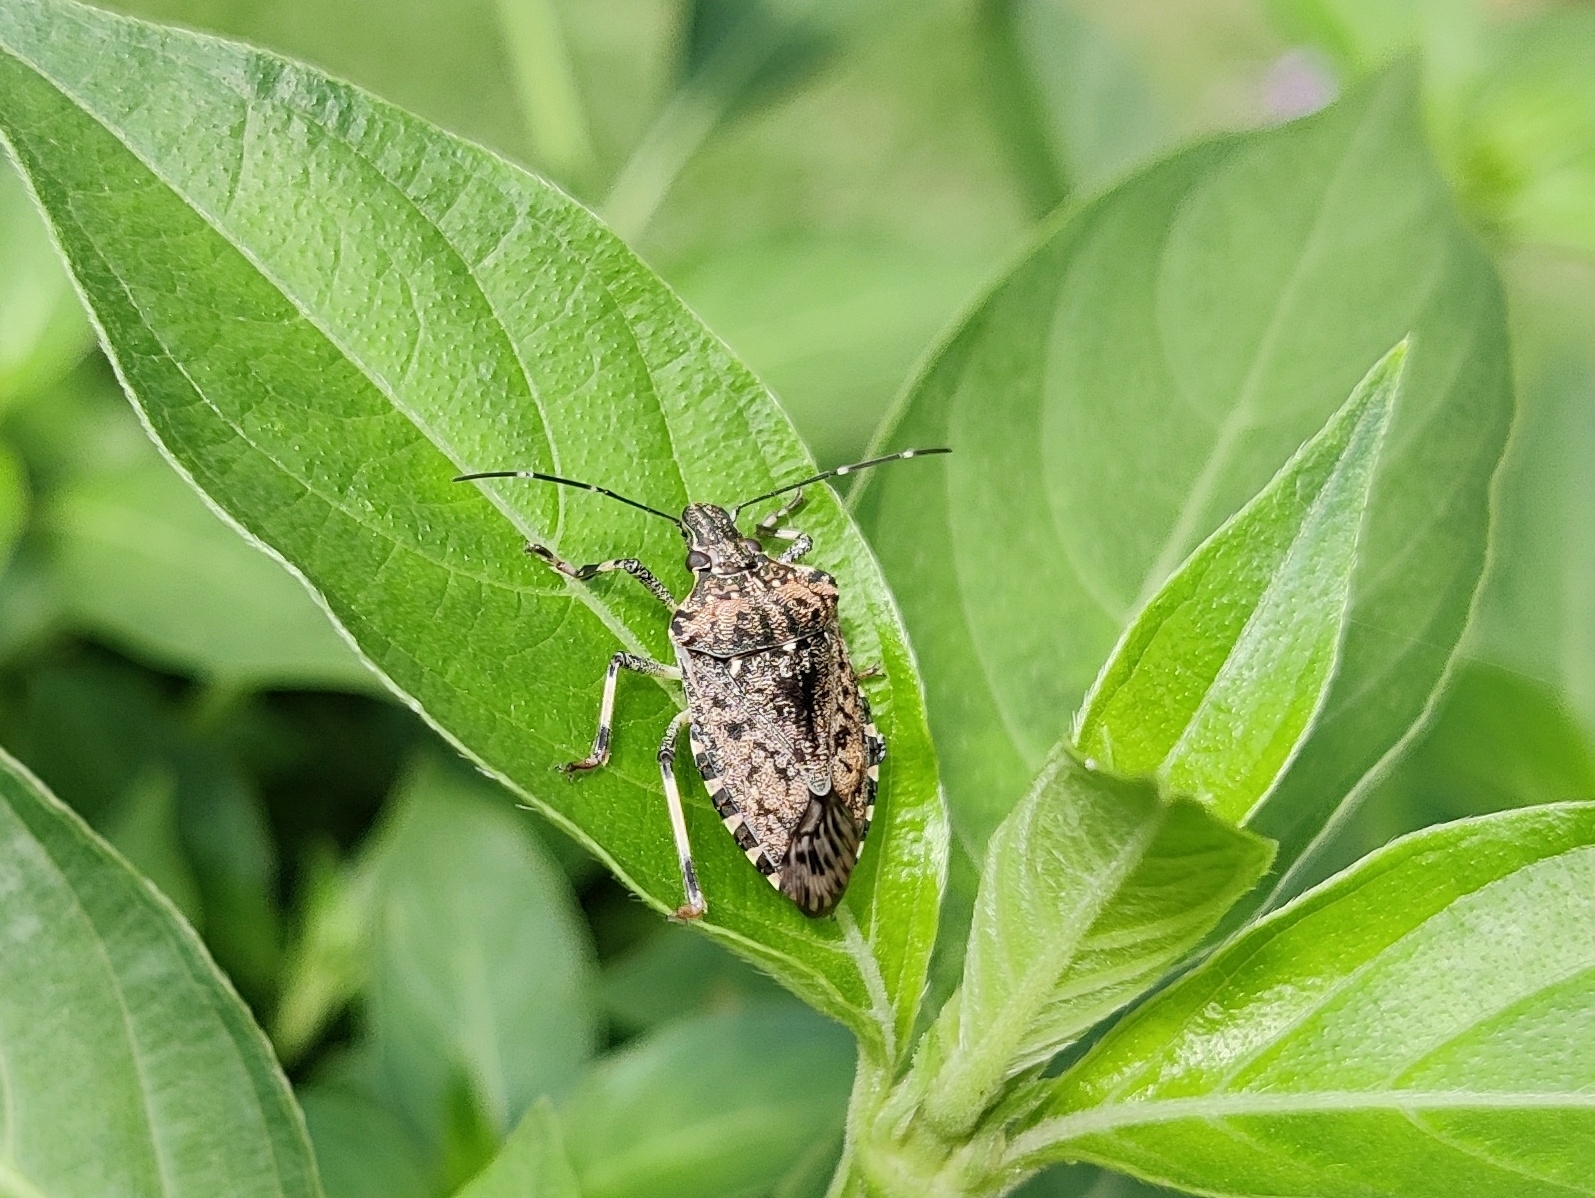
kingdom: Animalia
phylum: Arthropoda
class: Insecta
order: Hemiptera
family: Pentatomidae
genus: Halyomorpha
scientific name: Halyomorpha picus
